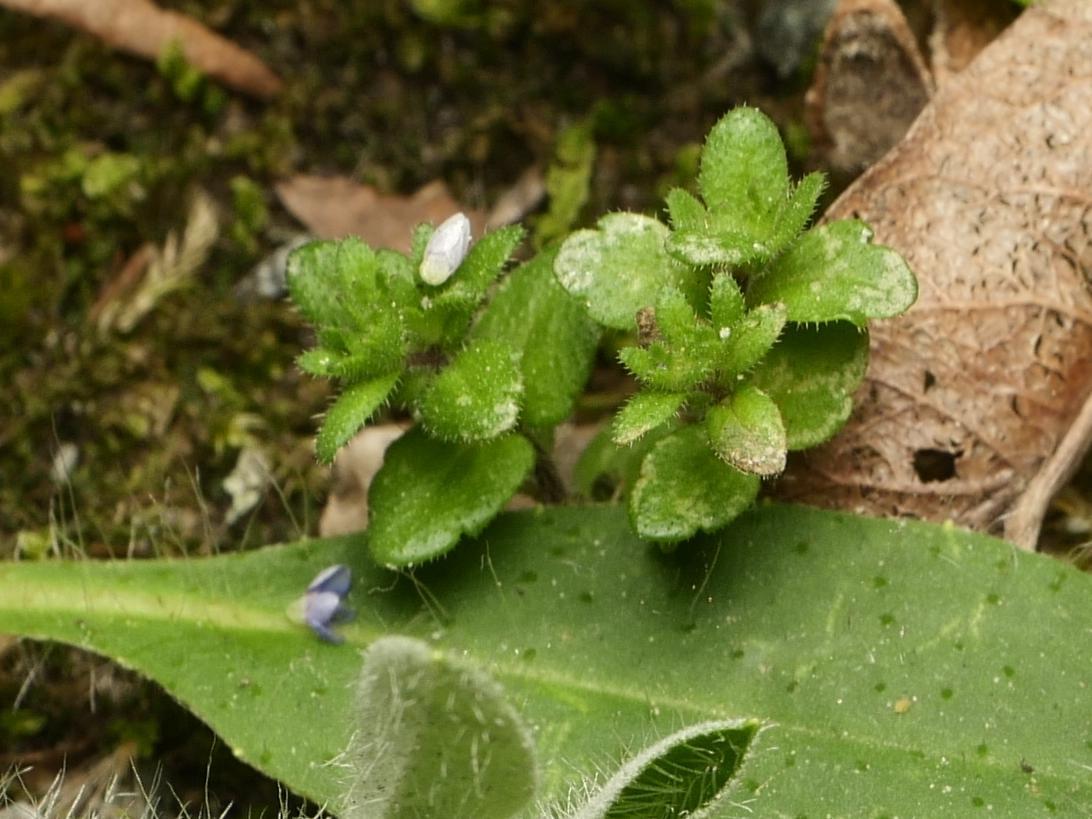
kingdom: Plantae
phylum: Tracheophyta
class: Magnoliopsida
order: Lamiales
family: Plantaginaceae
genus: Veronica
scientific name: Veronica arvensis
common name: Corn speedwell
